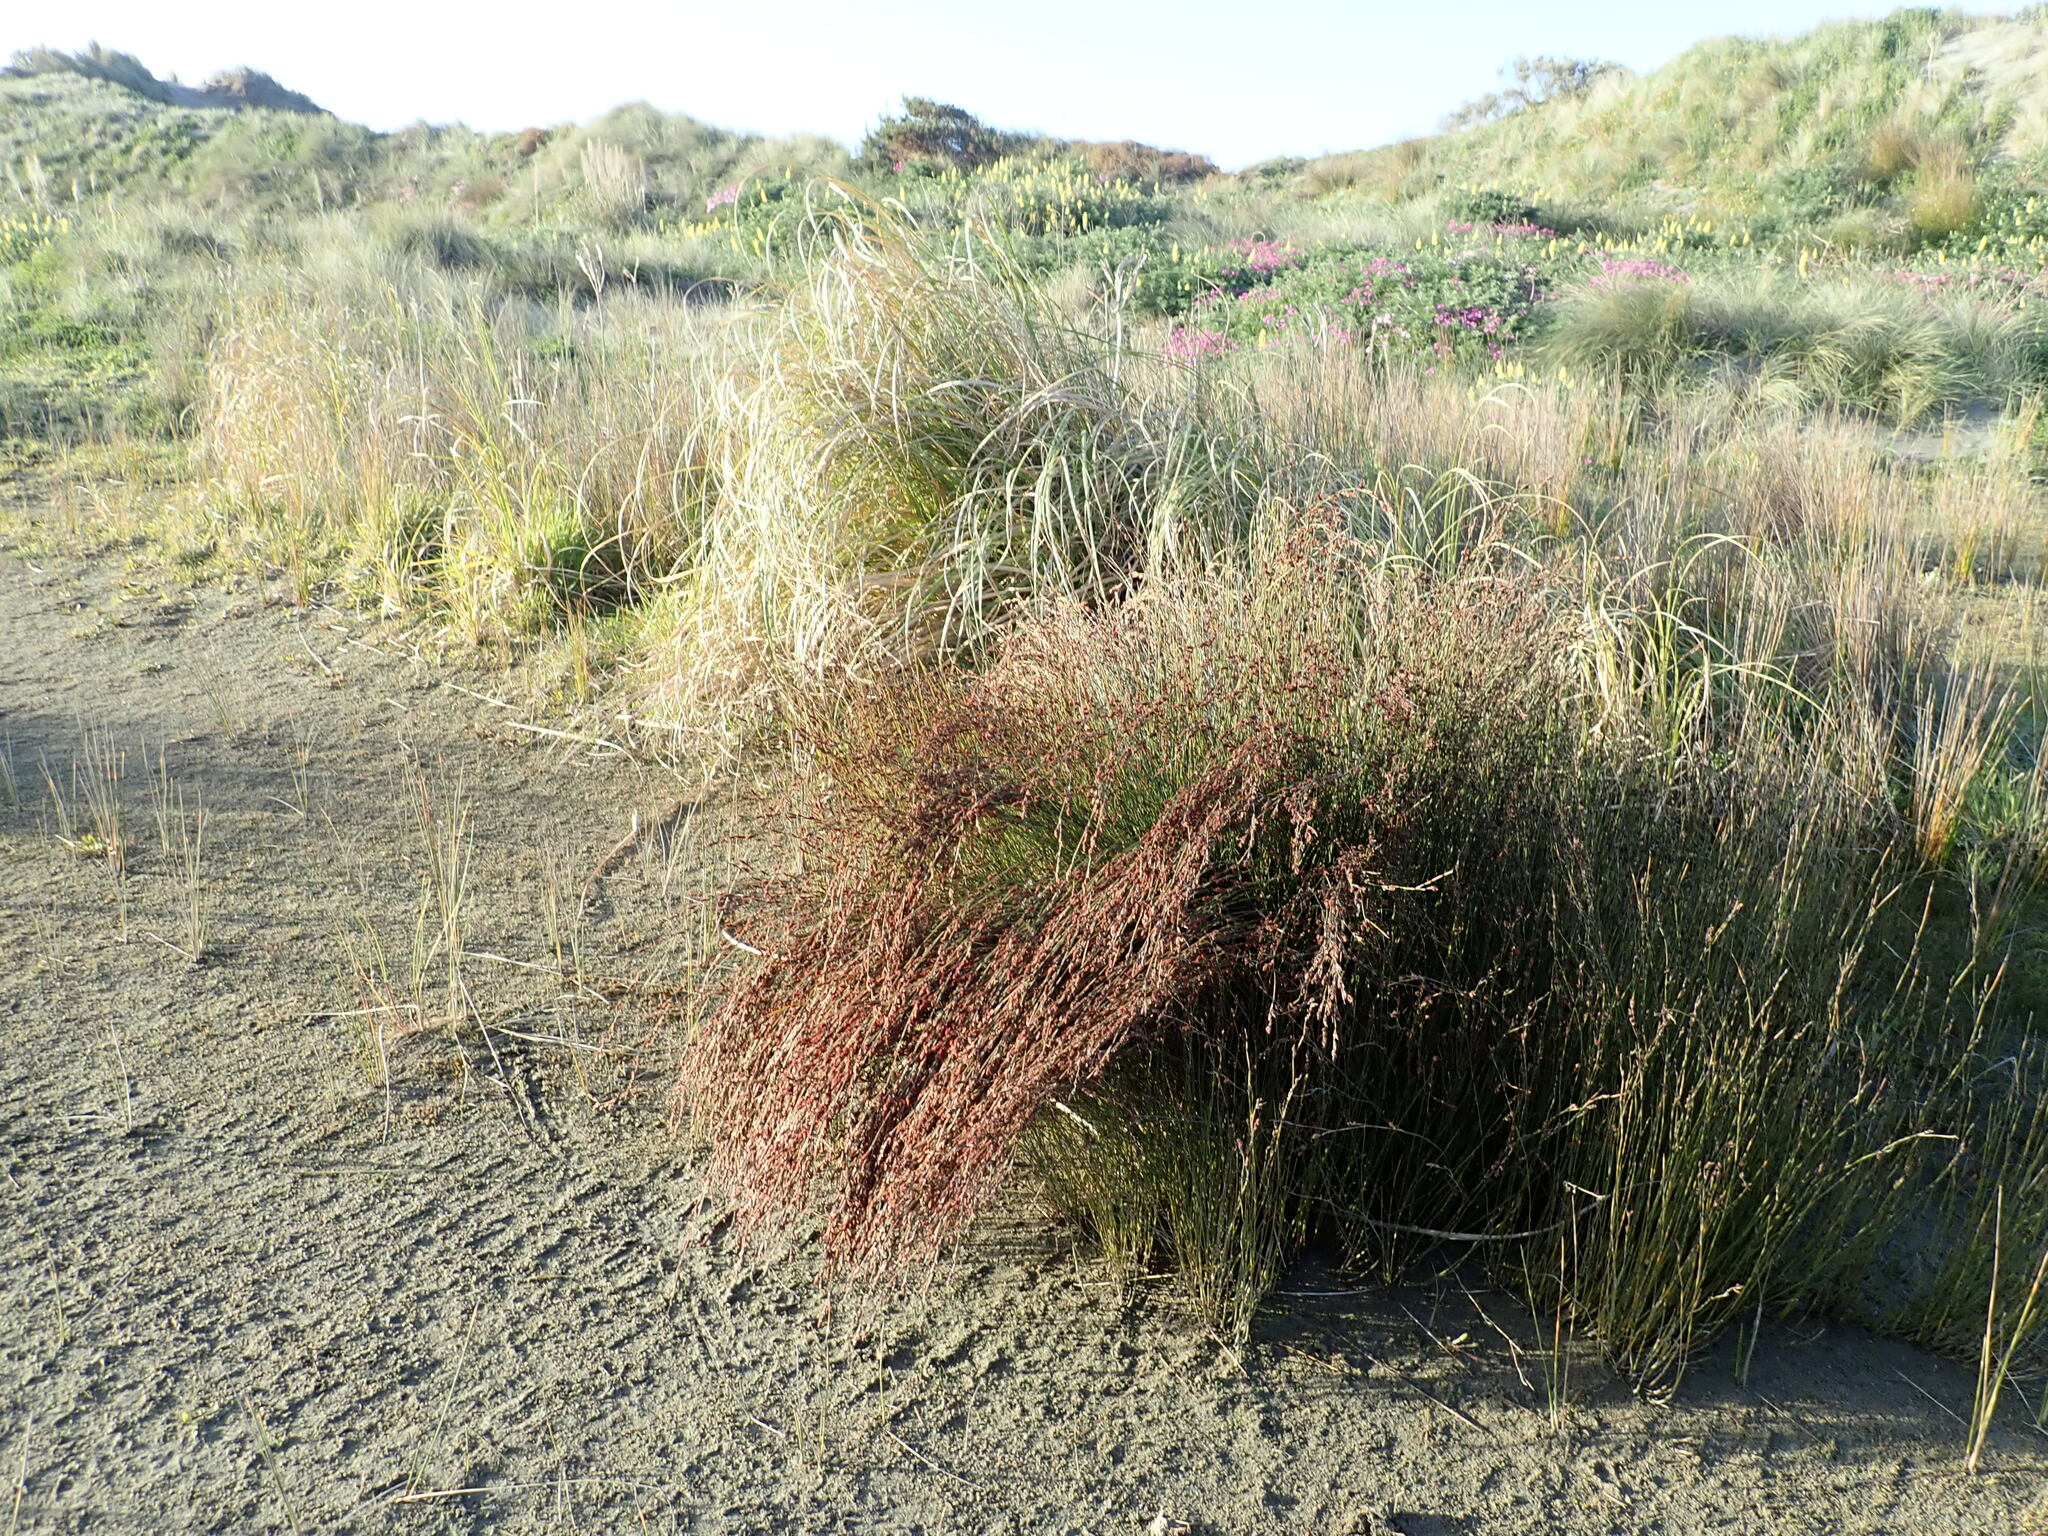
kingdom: Plantae
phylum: Tracheophyta
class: Liliopsida
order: Poales
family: Restionaceae
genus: Apodasmia
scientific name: Apodasmia similis
